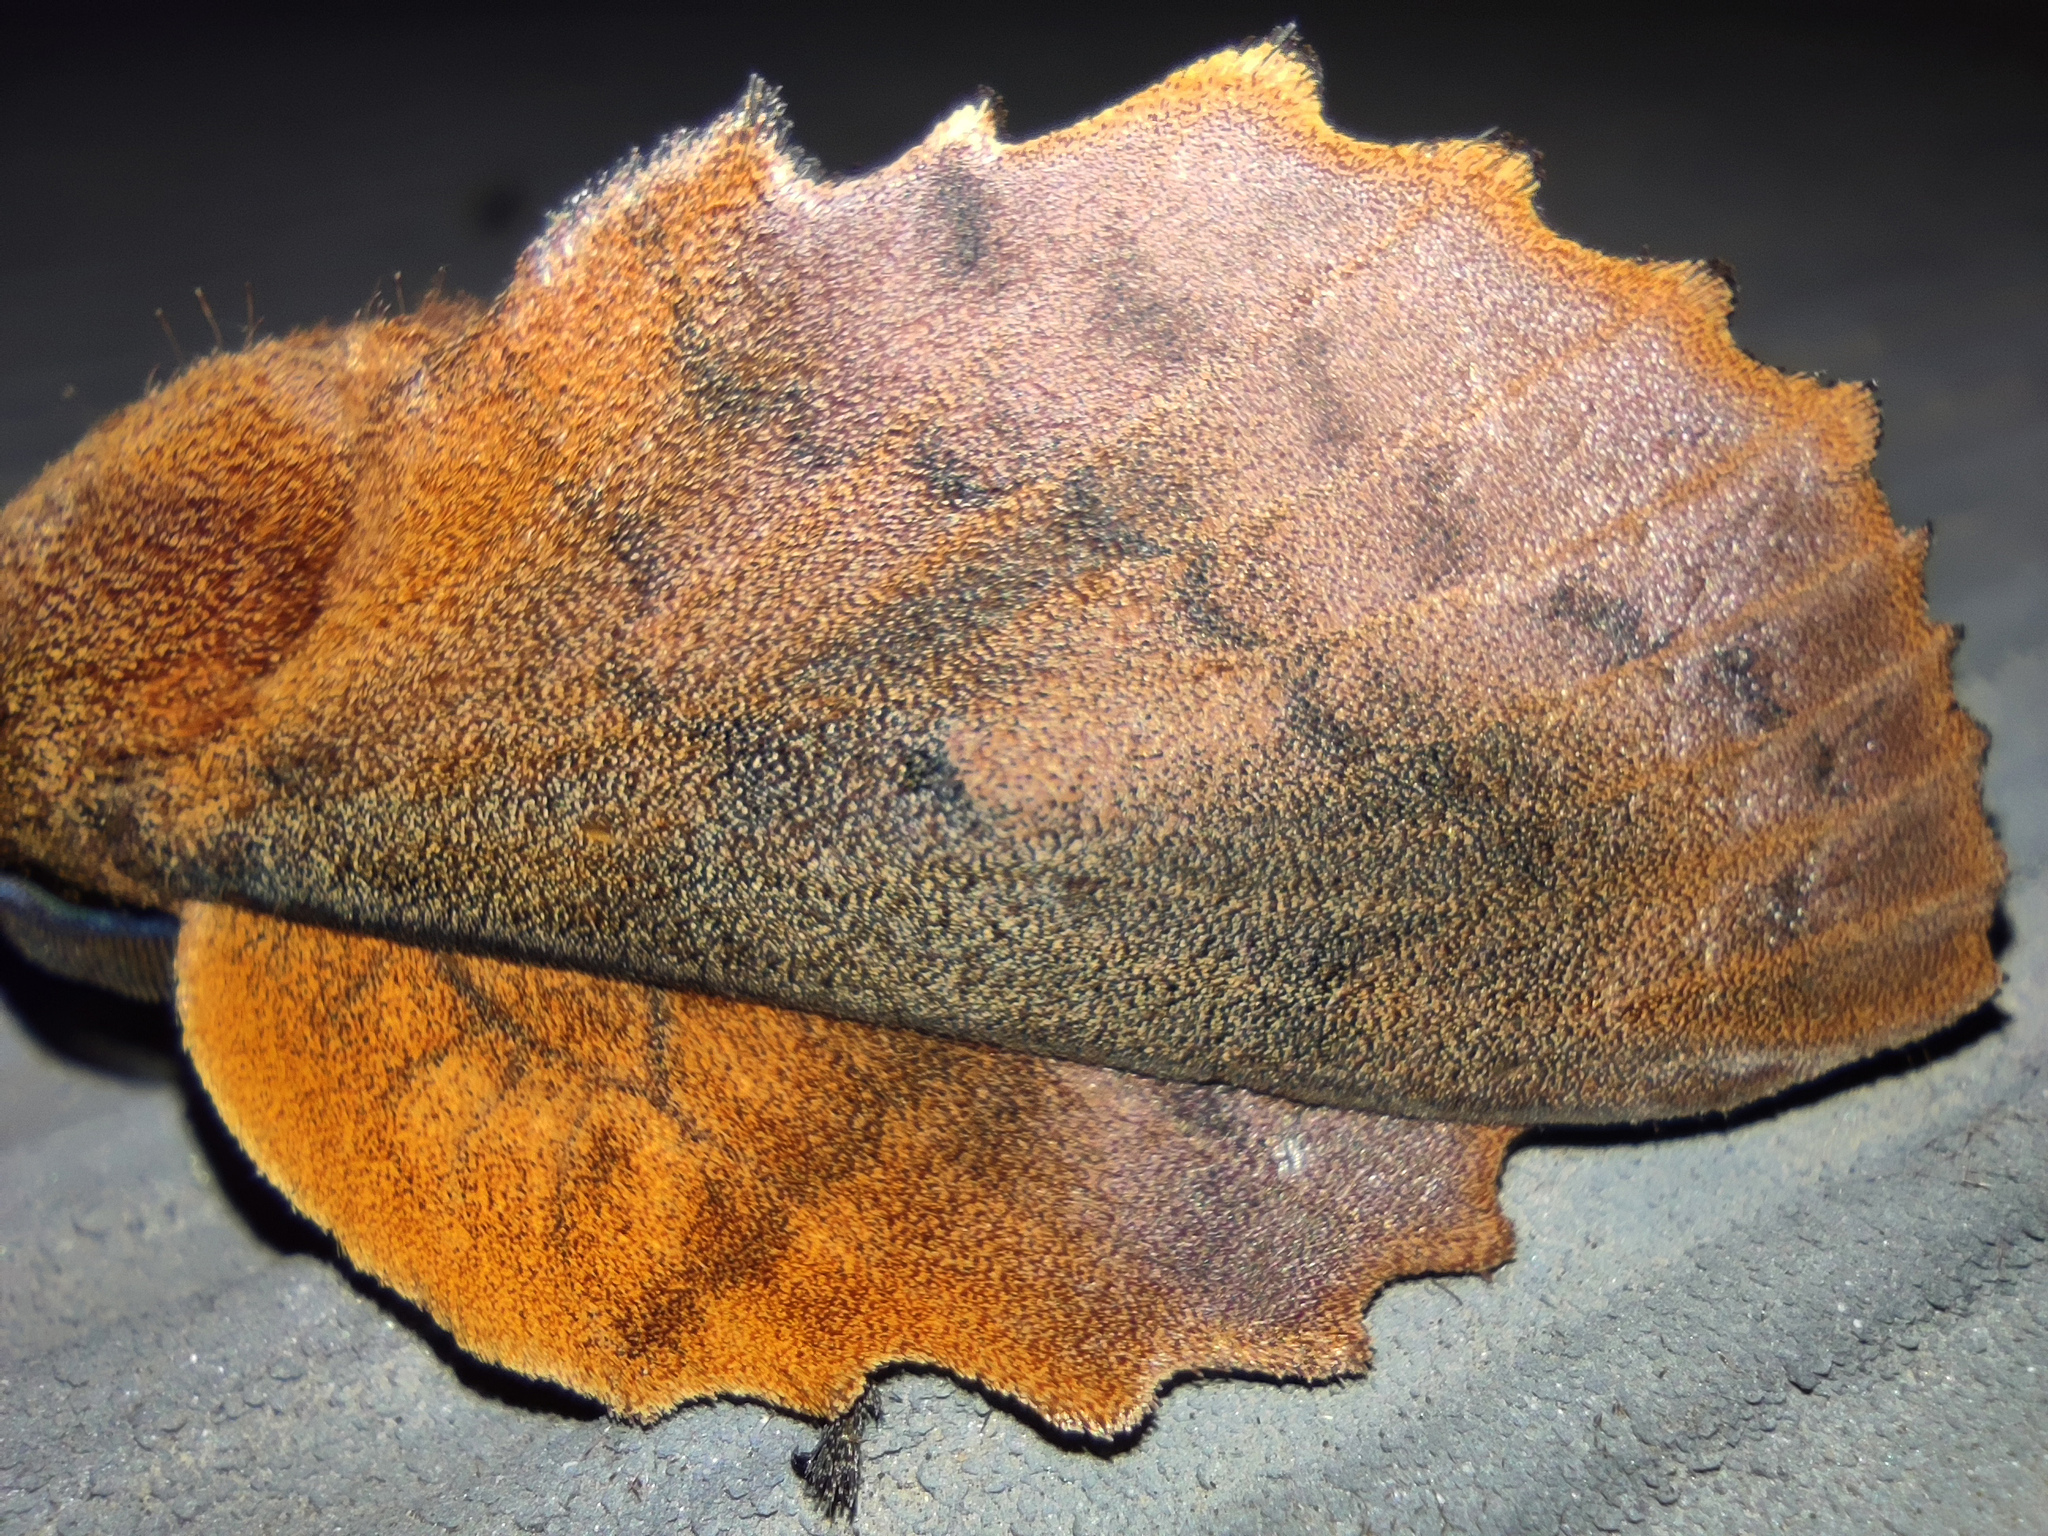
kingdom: Animalia
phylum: Arthropoda
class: Insecta
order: Lepidoptera
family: Lasiocampidae
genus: Gastropacha
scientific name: Gastropacha quercifolia
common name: Lappet
